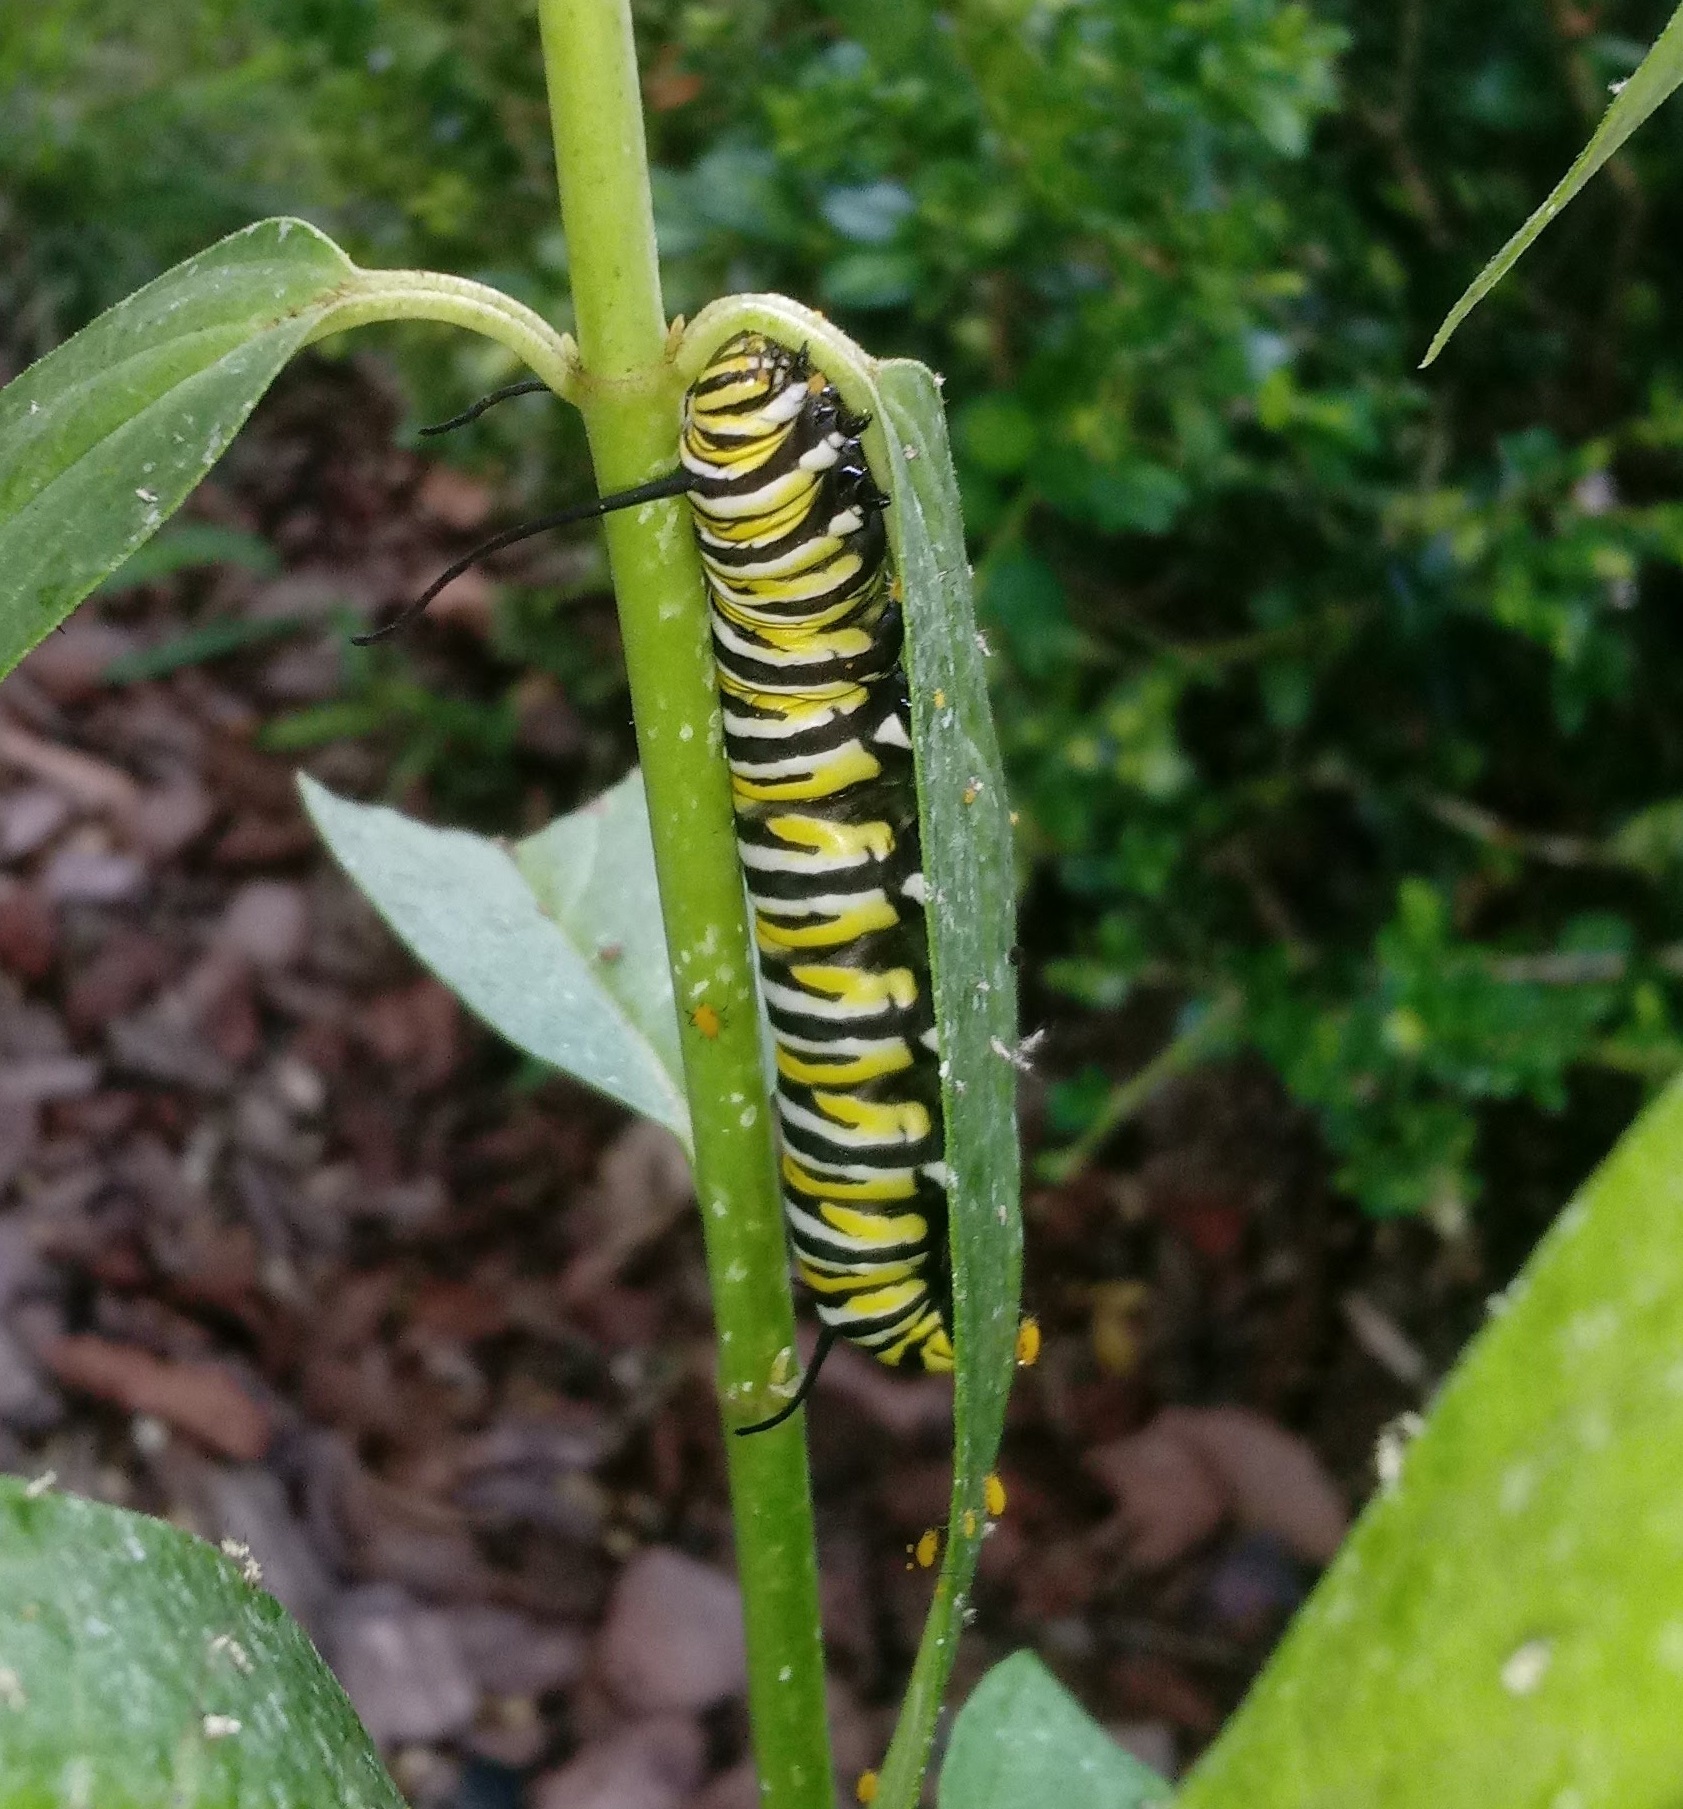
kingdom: Animalia
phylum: Arthropoda
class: Insecta
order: Lepidoptera
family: Nymphalidae
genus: Danaus
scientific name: Danaus plexippus
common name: Monarch
